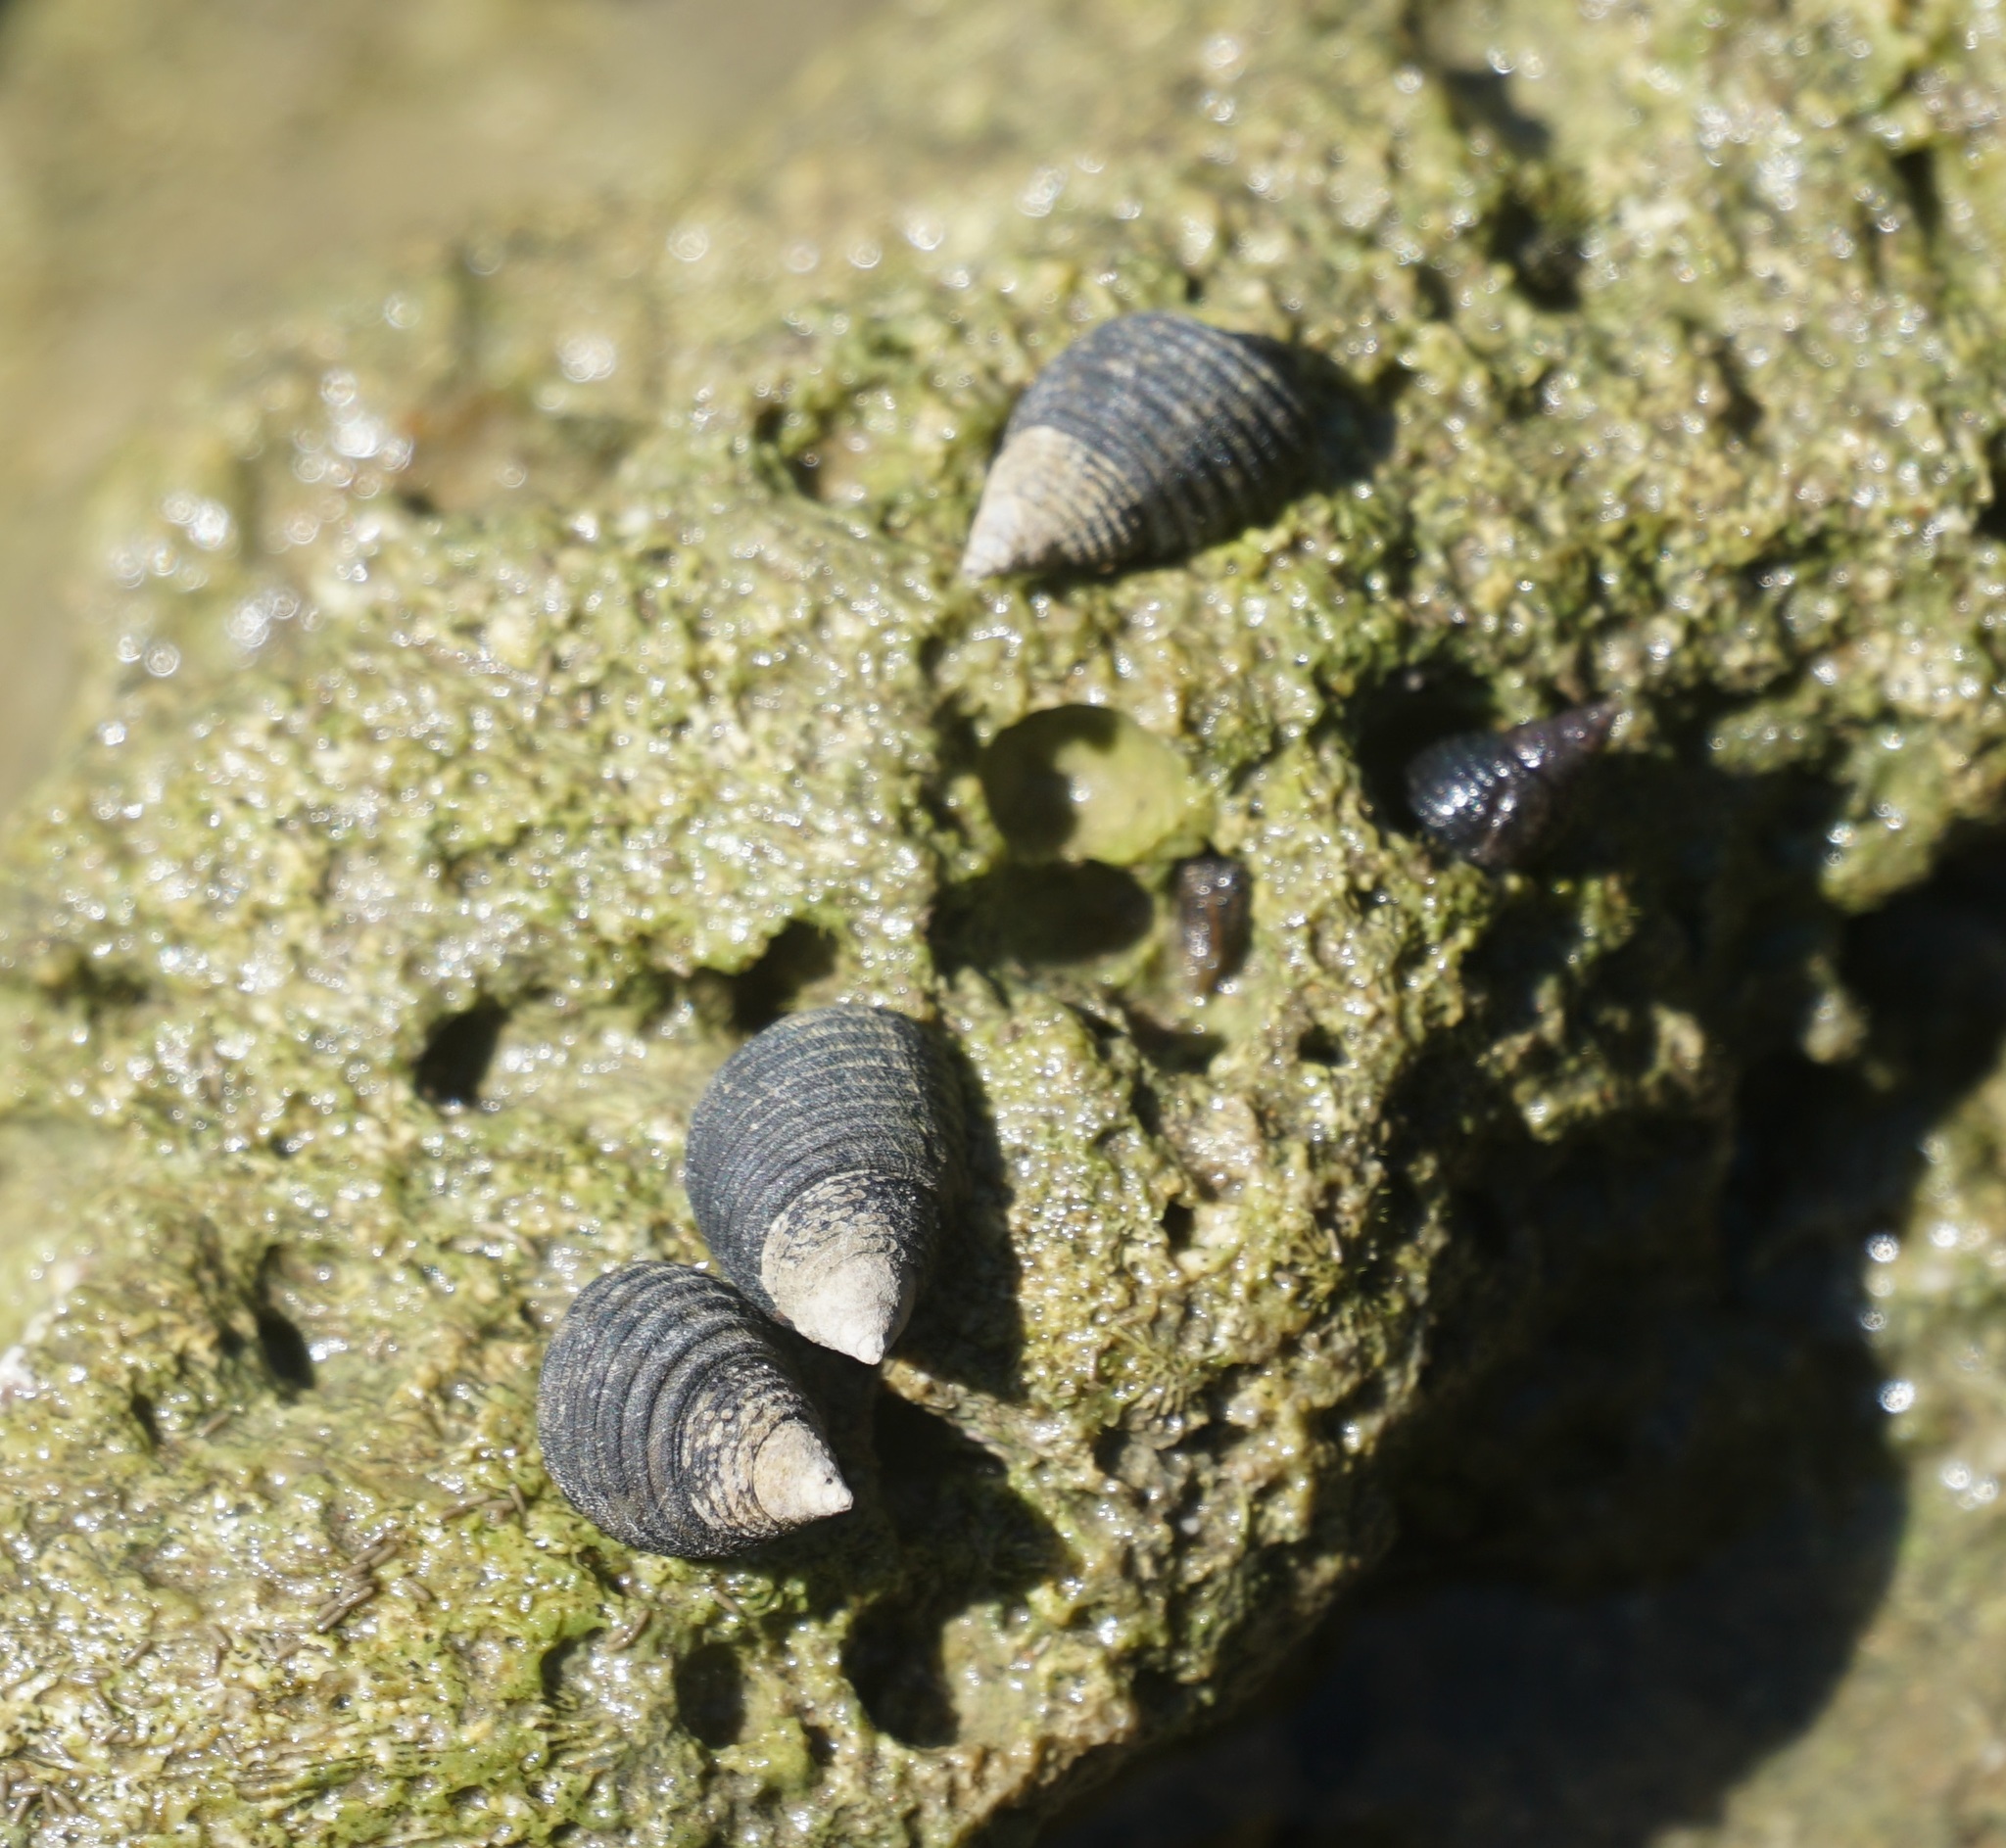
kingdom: Animalia
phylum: Mollusca
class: Gastropoda
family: Planaxidae
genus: Planaxis
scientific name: Planaxis sulcatus
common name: Furrowed planaxis
